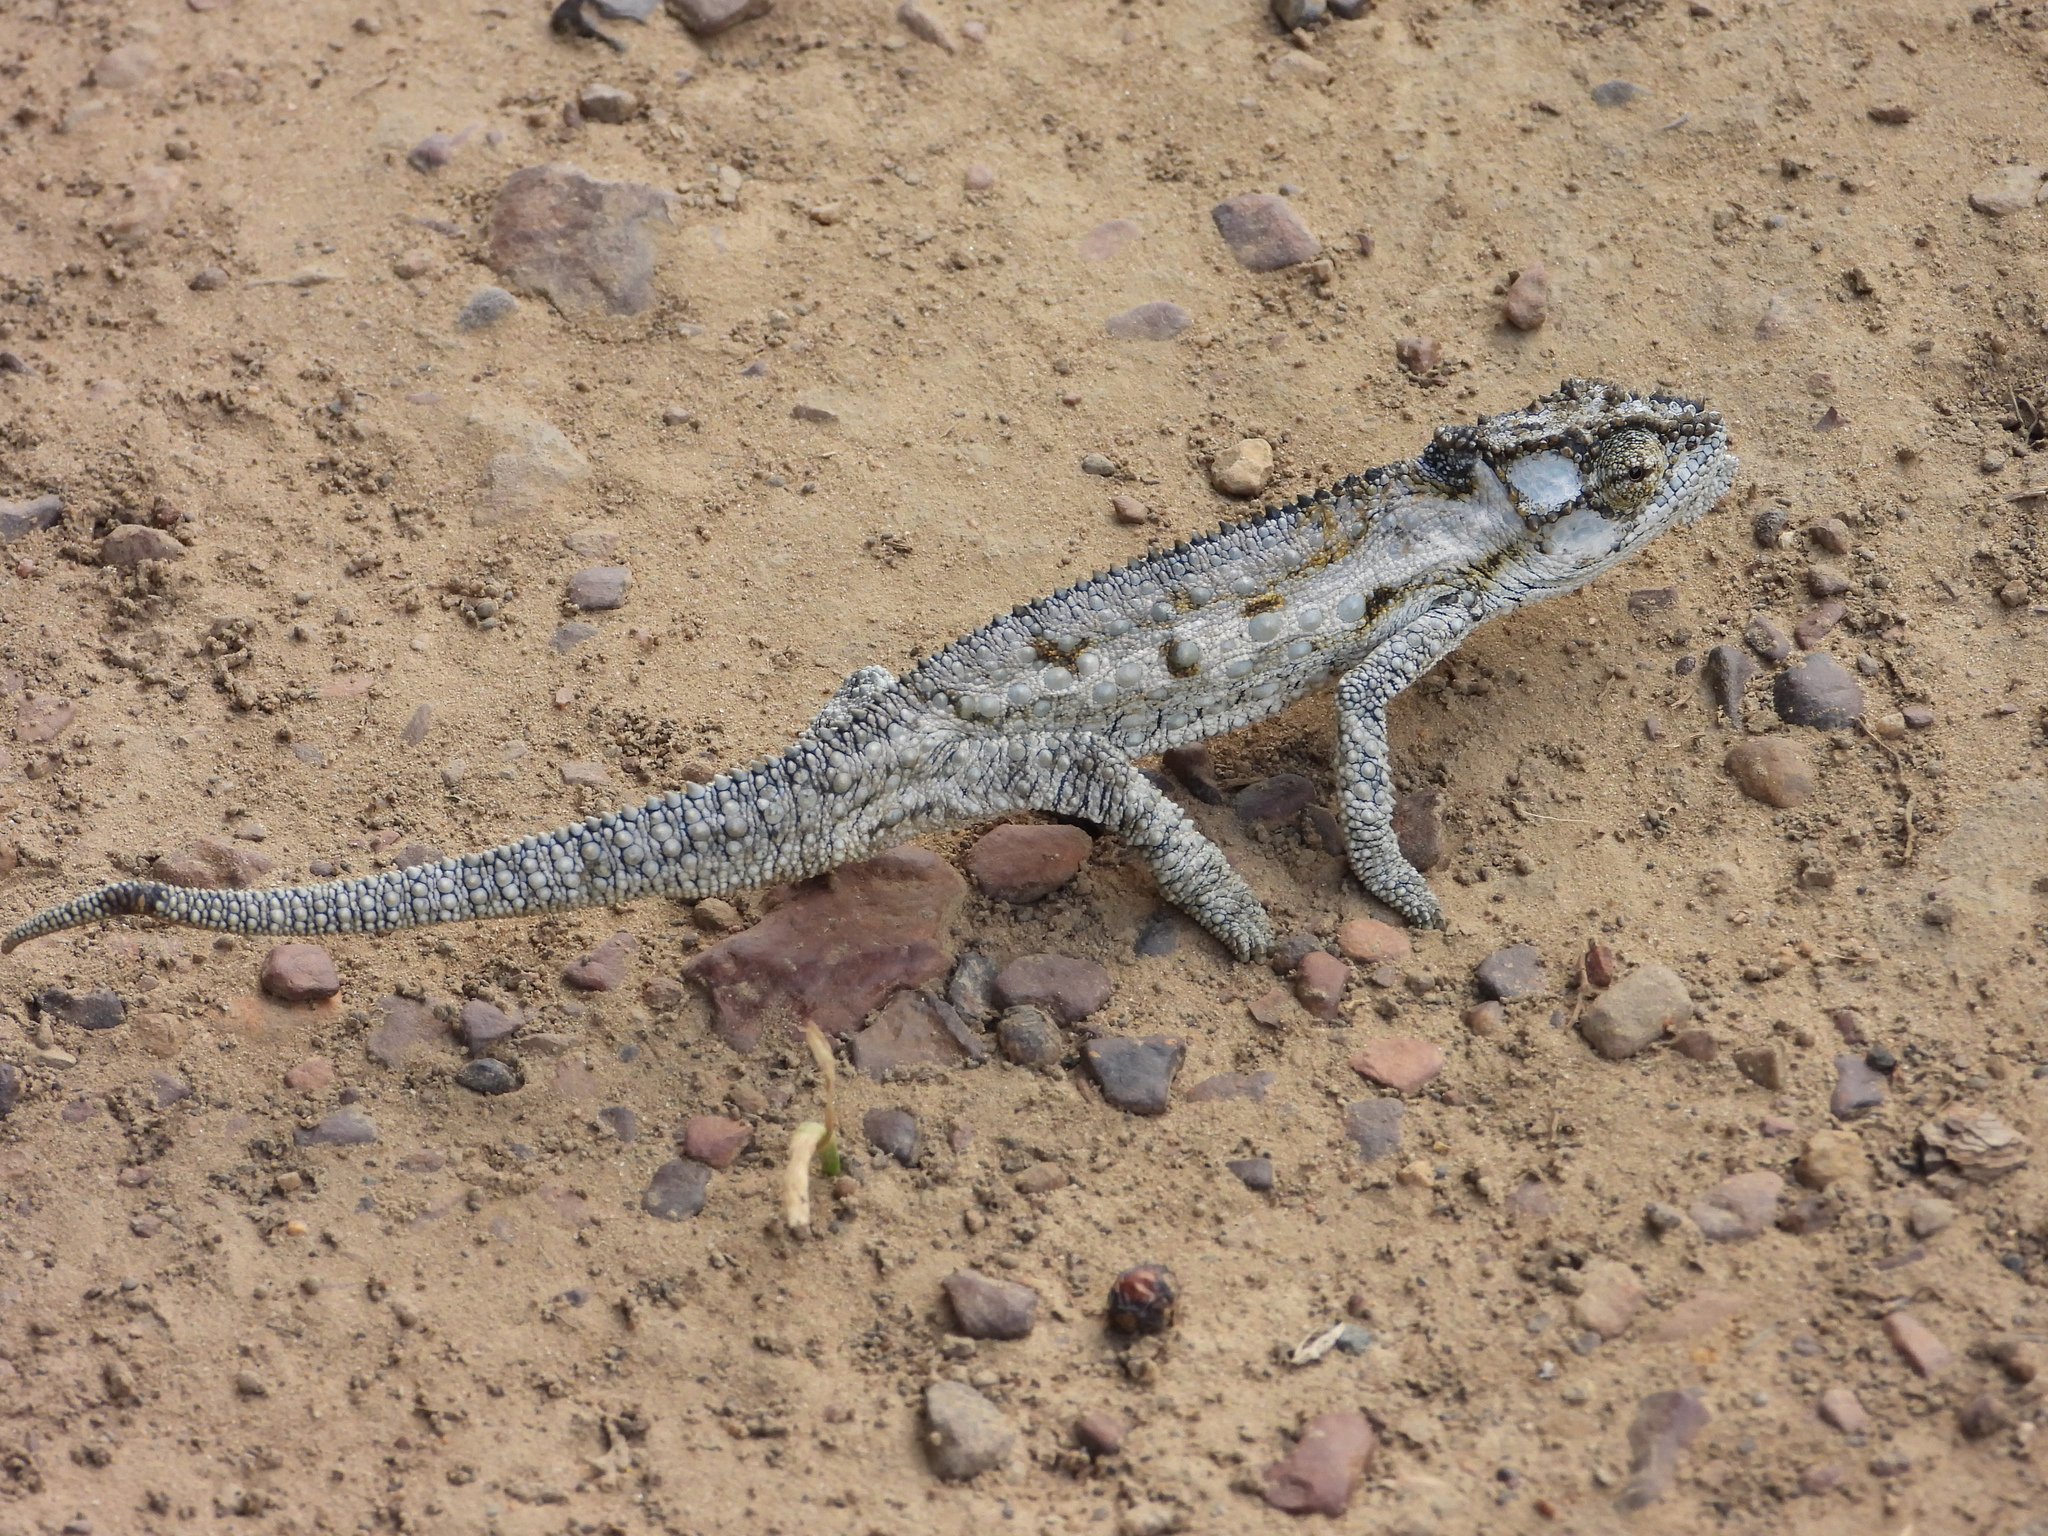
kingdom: Animalia
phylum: Chordata
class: Squamata
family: Chamaeleonidae
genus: Bradypodion
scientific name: Bradypodion occidentale
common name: Western dwarf chameleon
